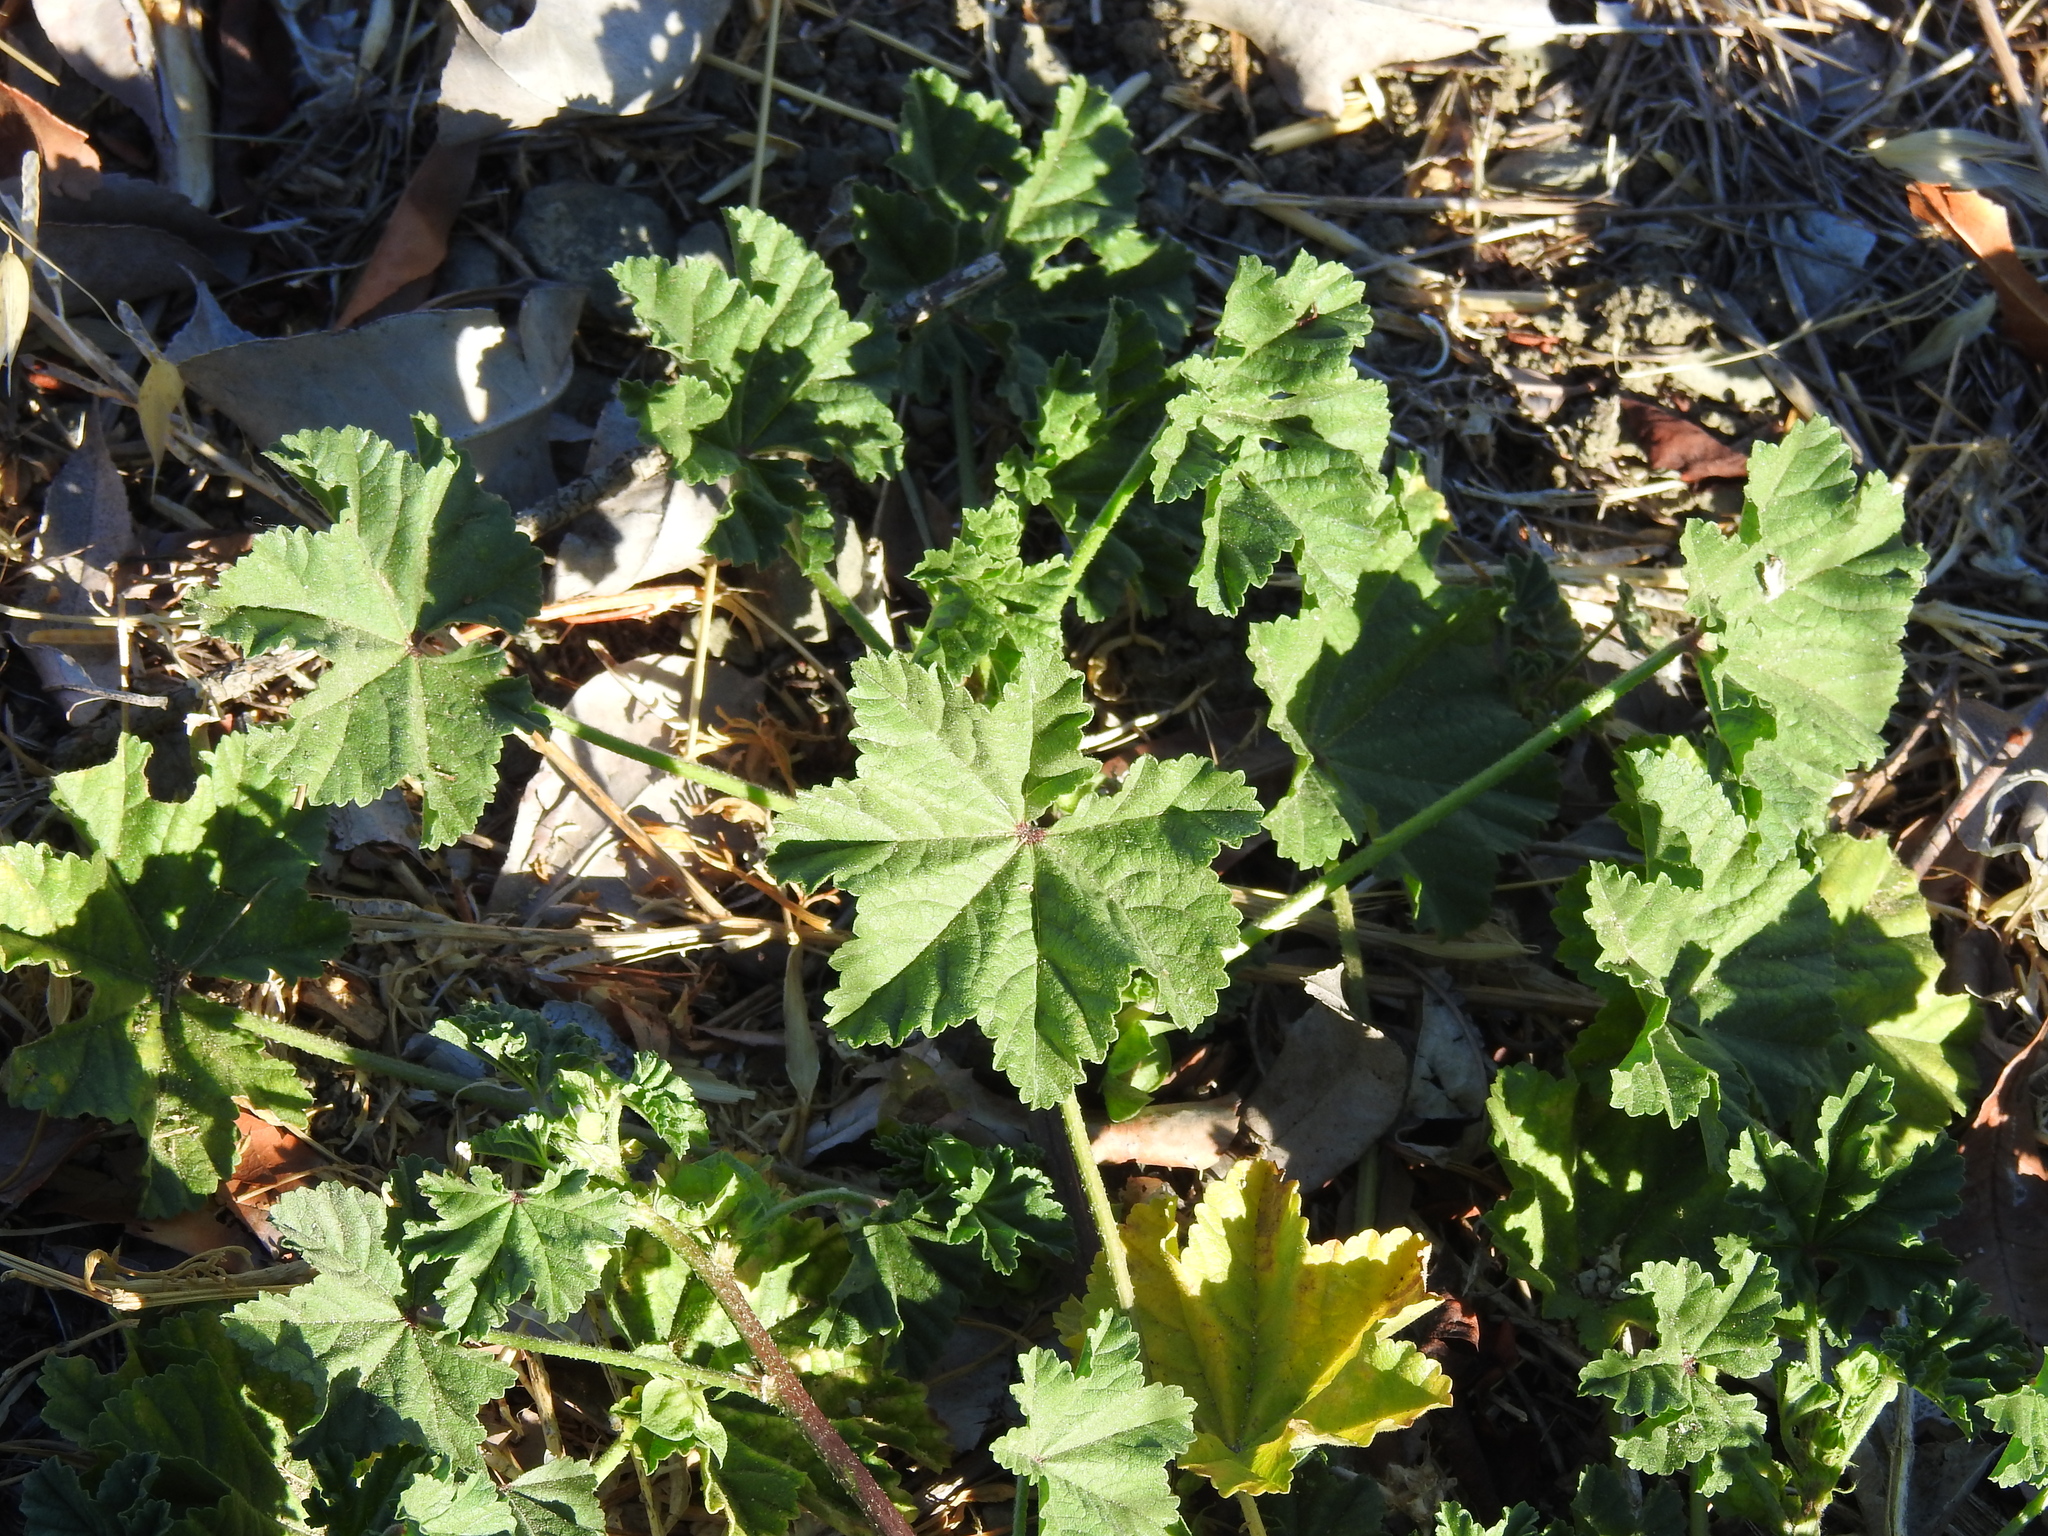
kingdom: Plantae
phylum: Tracheophyta
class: Magnoliopsida
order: Malvales
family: Malvaceae
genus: Malva
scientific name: Malva
